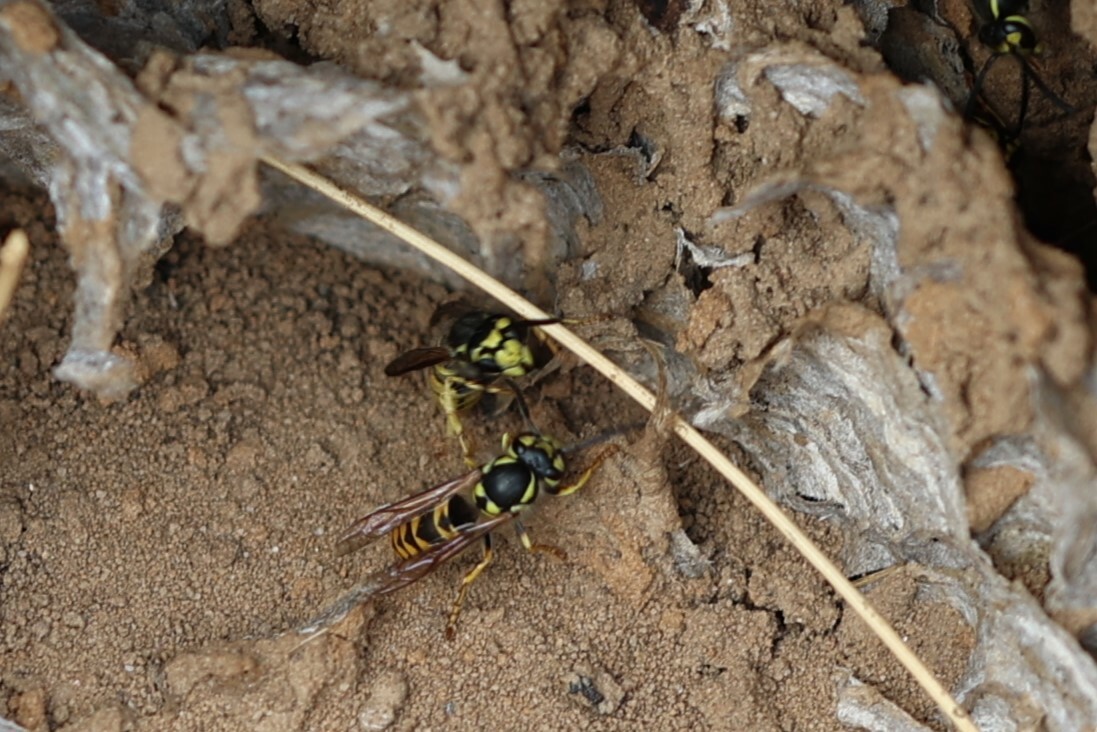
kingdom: Animalia
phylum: Arthropoda
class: Insecta
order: Hymenoptera
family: Vespidae
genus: Vespula
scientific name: Vespula germanica
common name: German wasp
